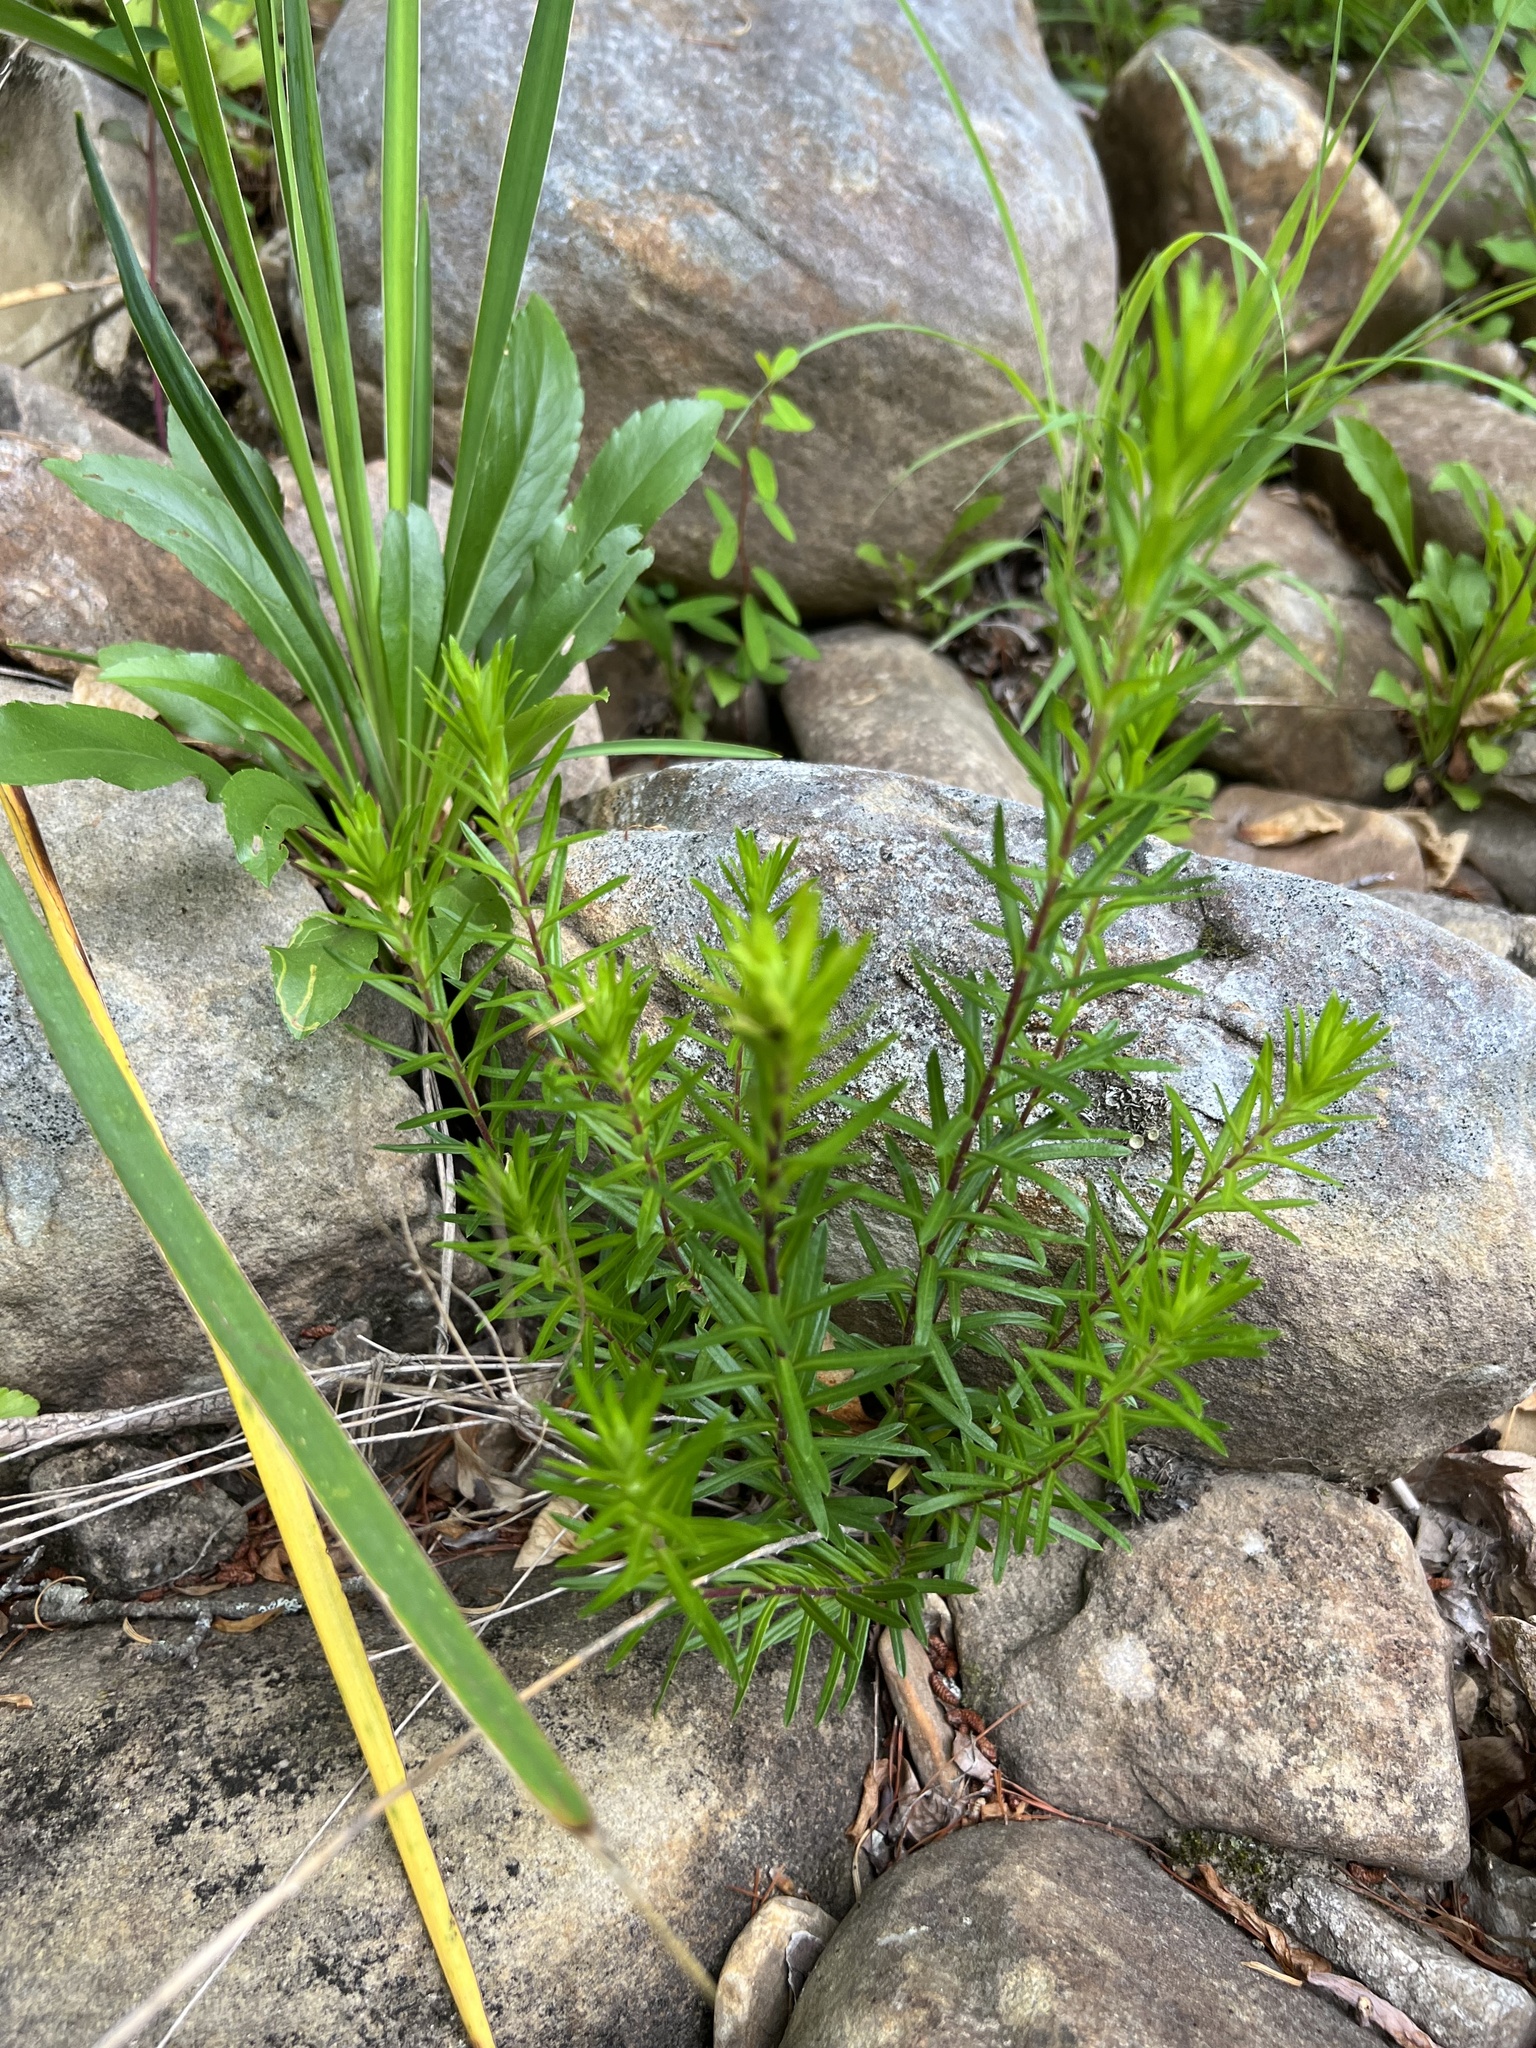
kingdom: Plantae
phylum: Tracheophyta
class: Magnoliopsida
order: Asterales
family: Asteraceae
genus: Ionactis
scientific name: Ionactis linariifolia
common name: Flax-leaf aster
